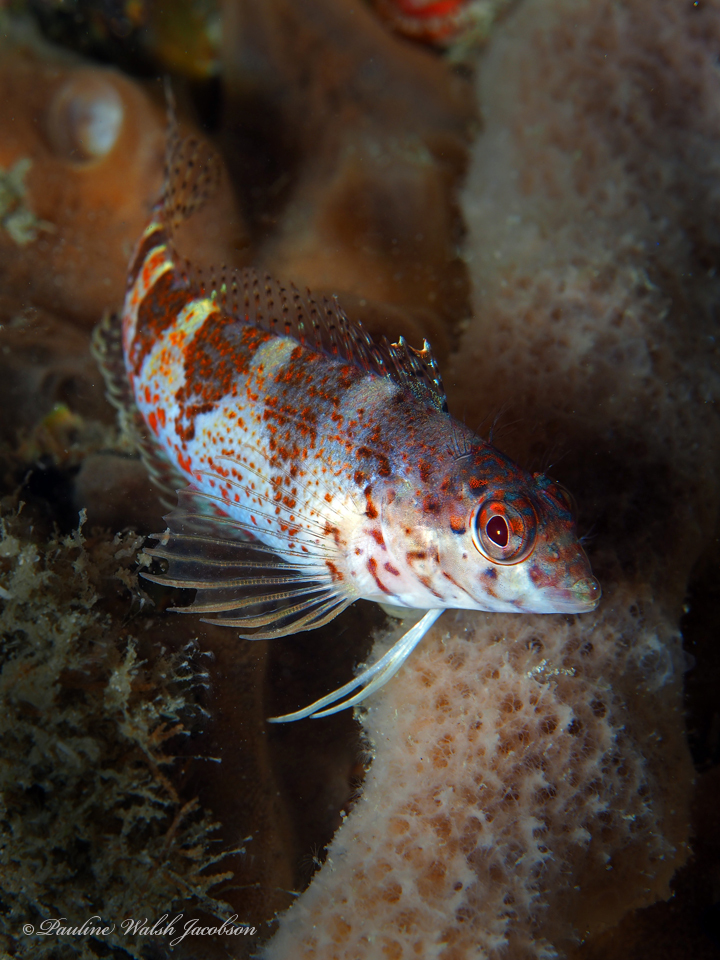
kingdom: Animalia
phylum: Chordata
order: Perciformes
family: Labrisomidae
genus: Malacoctenus
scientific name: Malacoctenus triangulatus
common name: Saddled blenny
